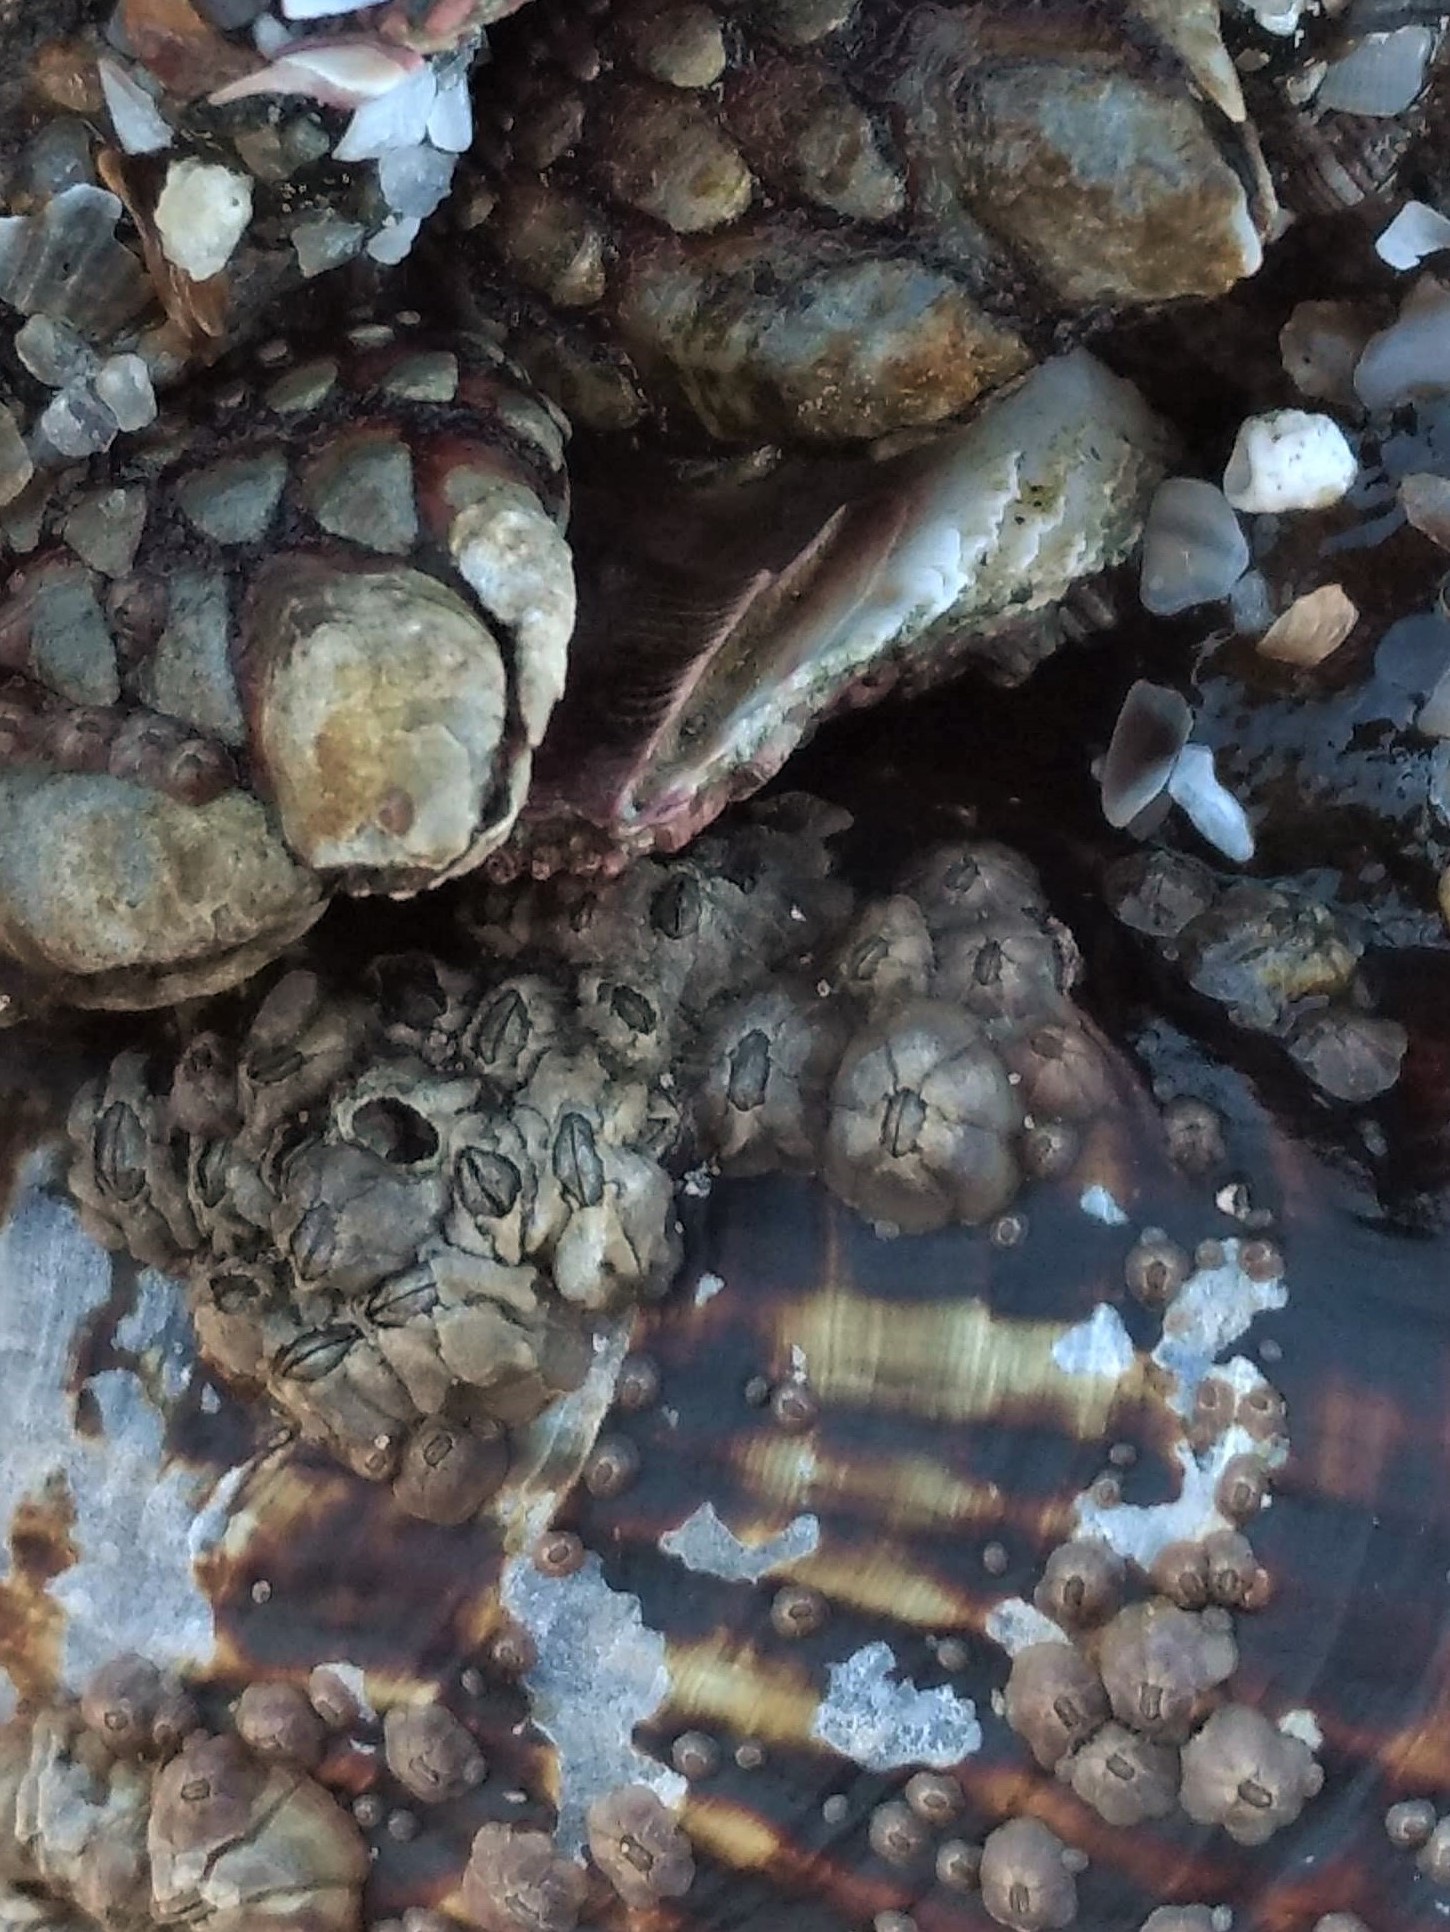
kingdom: Animalia
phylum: Arthropoda
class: Maxillopoda
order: Pedunculata
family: Pollicipedidae
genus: Pollicipes
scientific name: Pollicipes polymerus
